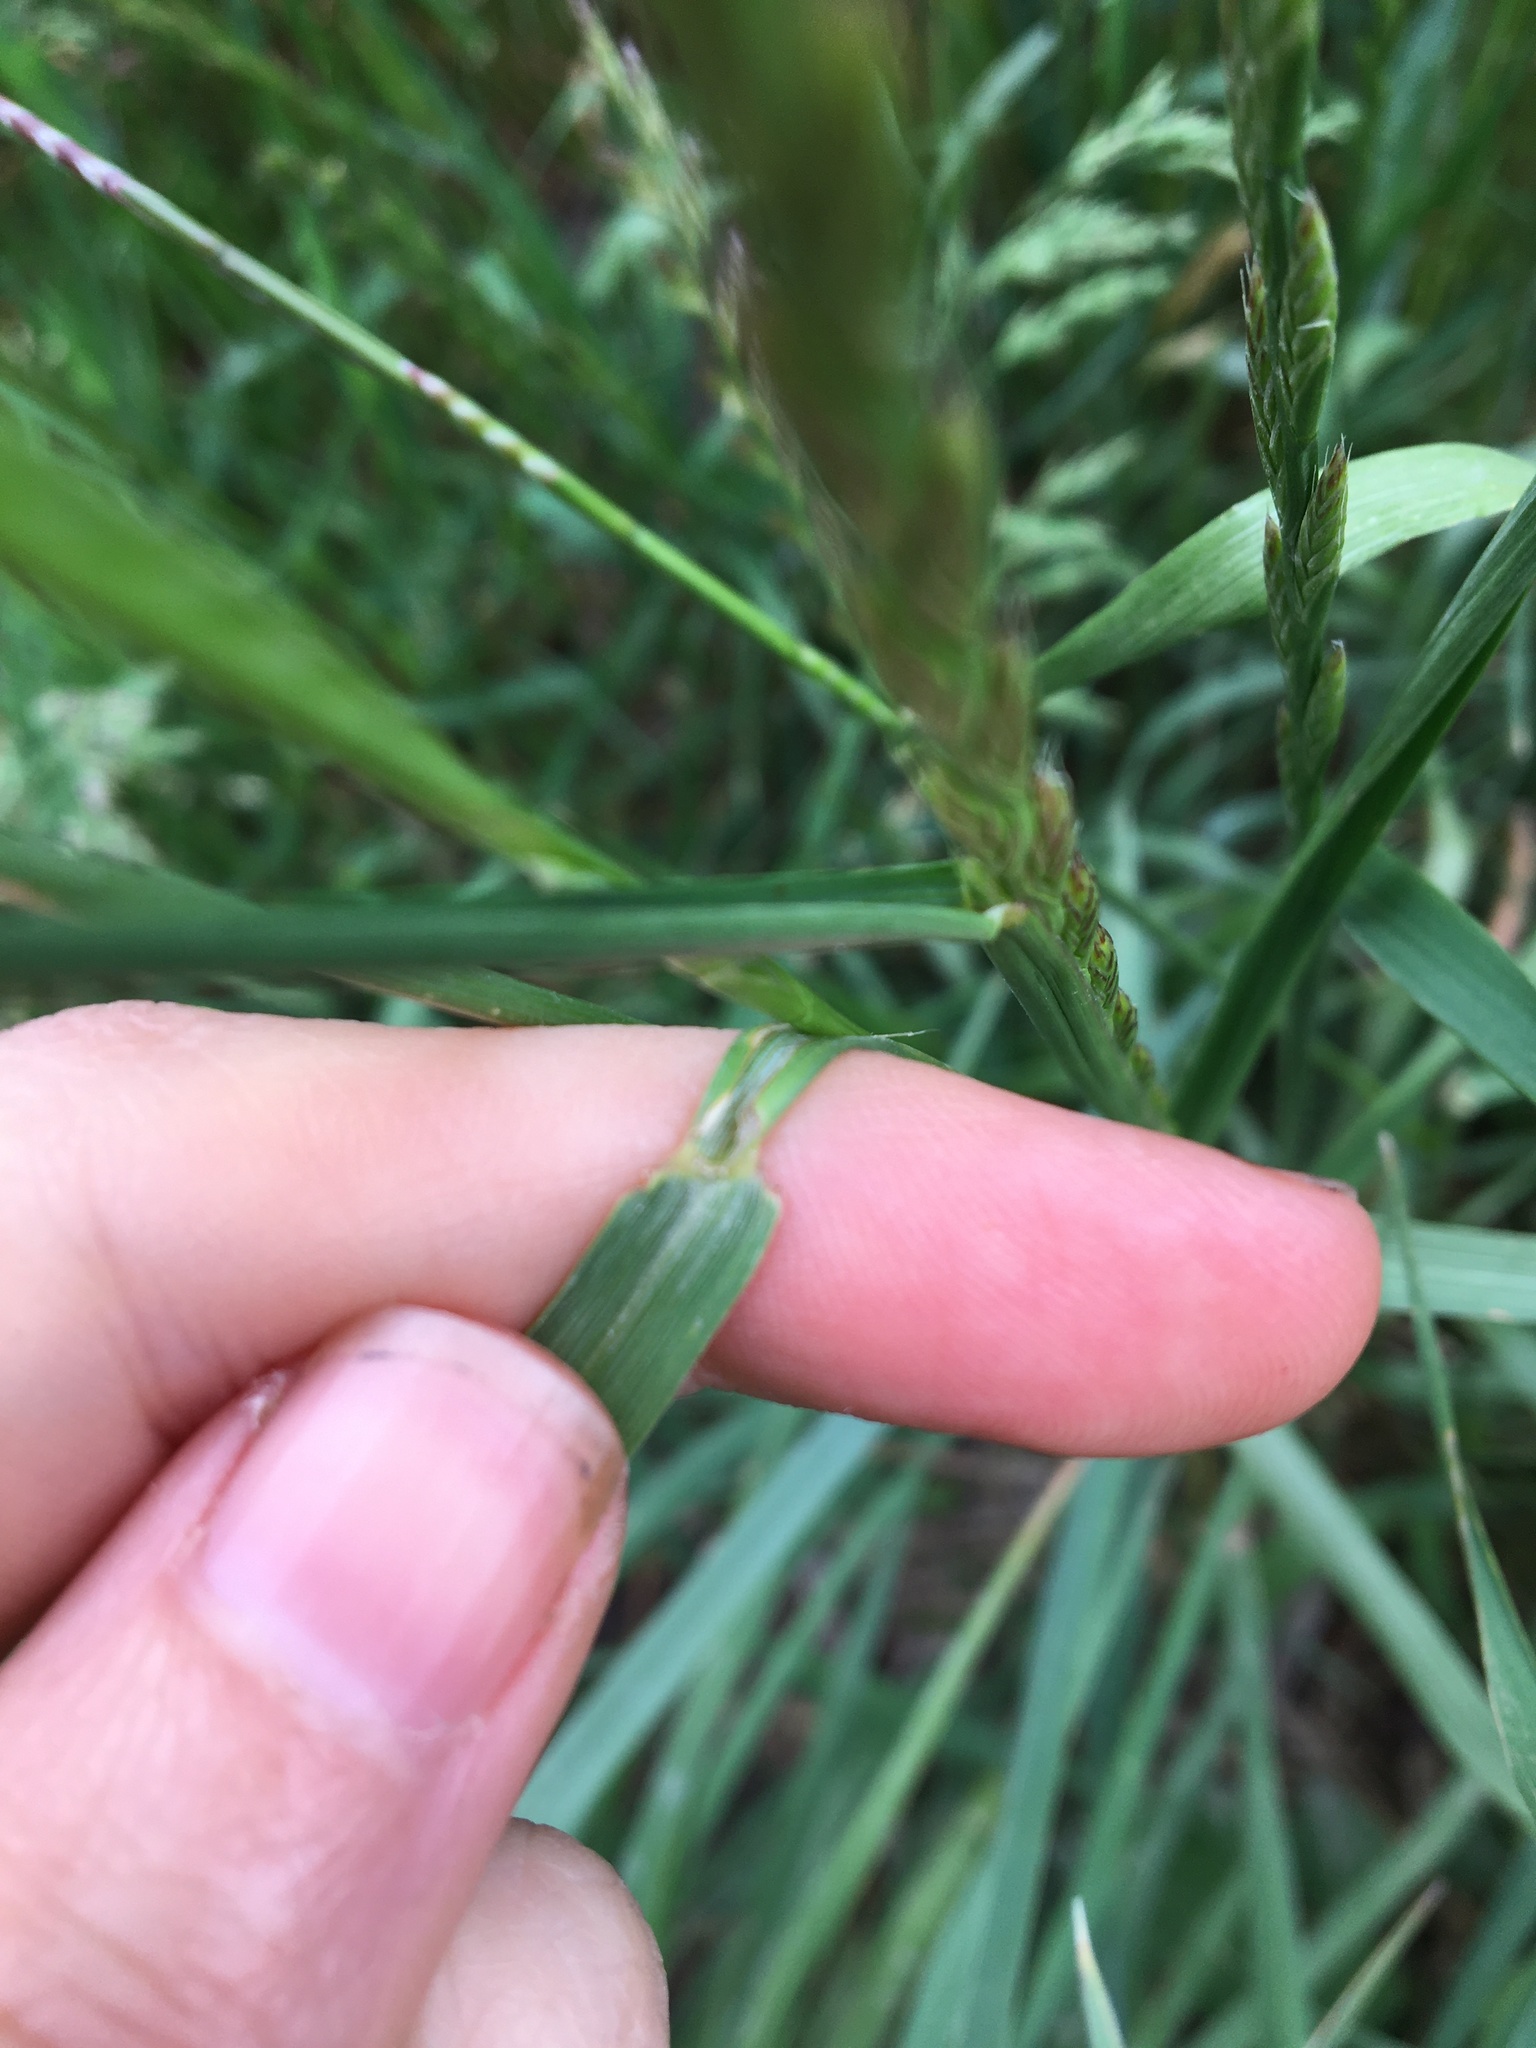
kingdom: Plantae
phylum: Tracheophyta
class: Liliopsida
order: Poales
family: Poaceae
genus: Lolium
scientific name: Lolium perenne
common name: Perennial ryegrass
